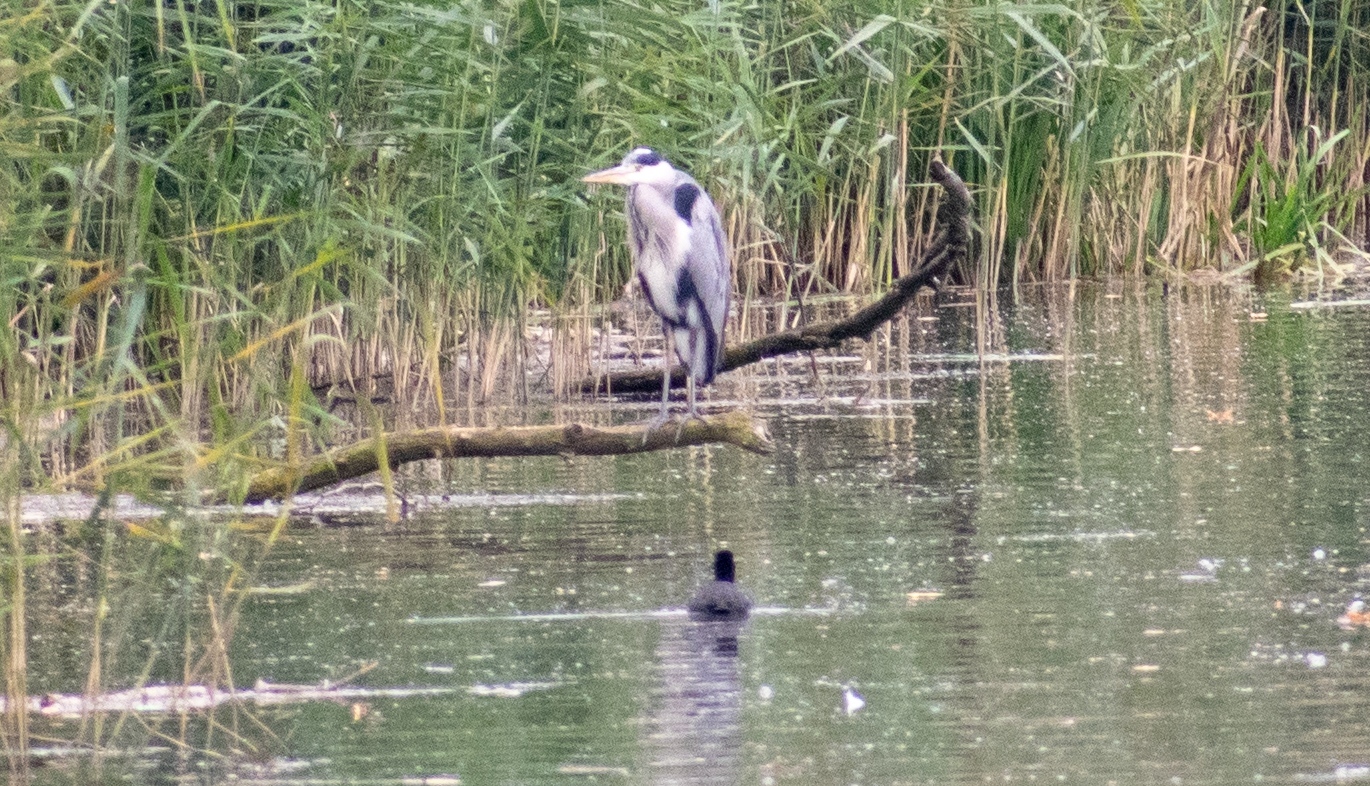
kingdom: Animalia
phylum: Chordata
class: Aves
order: Pelecaniformes
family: Ardeidae
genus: Ardea
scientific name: Ardea cinerea
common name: Grey heron
